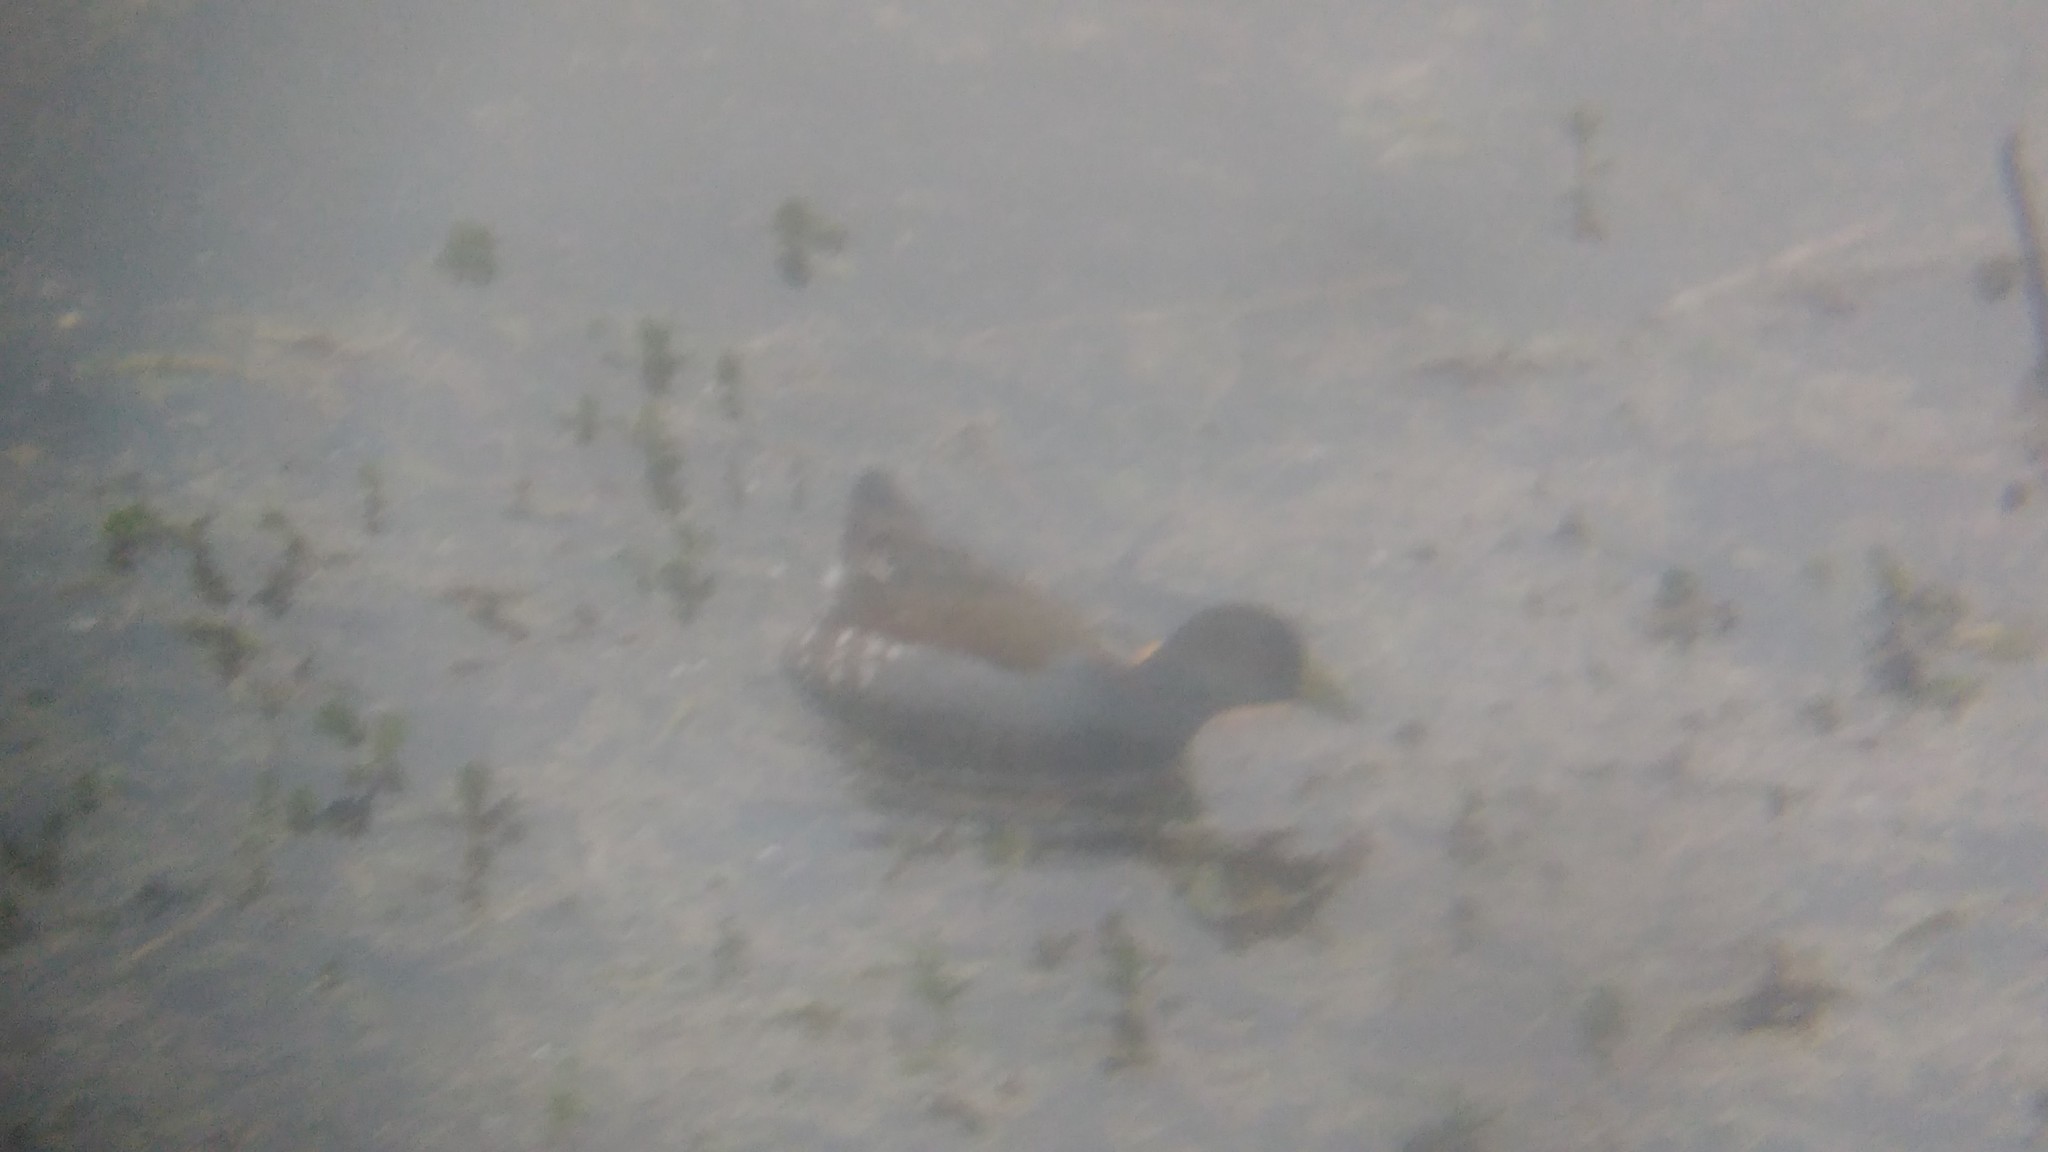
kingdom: Animalia
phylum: Chordata
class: Aves
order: Gruiformes
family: Rallidae
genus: Gallinula
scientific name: Gallinula melanops
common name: Spot-flanked gallinule
